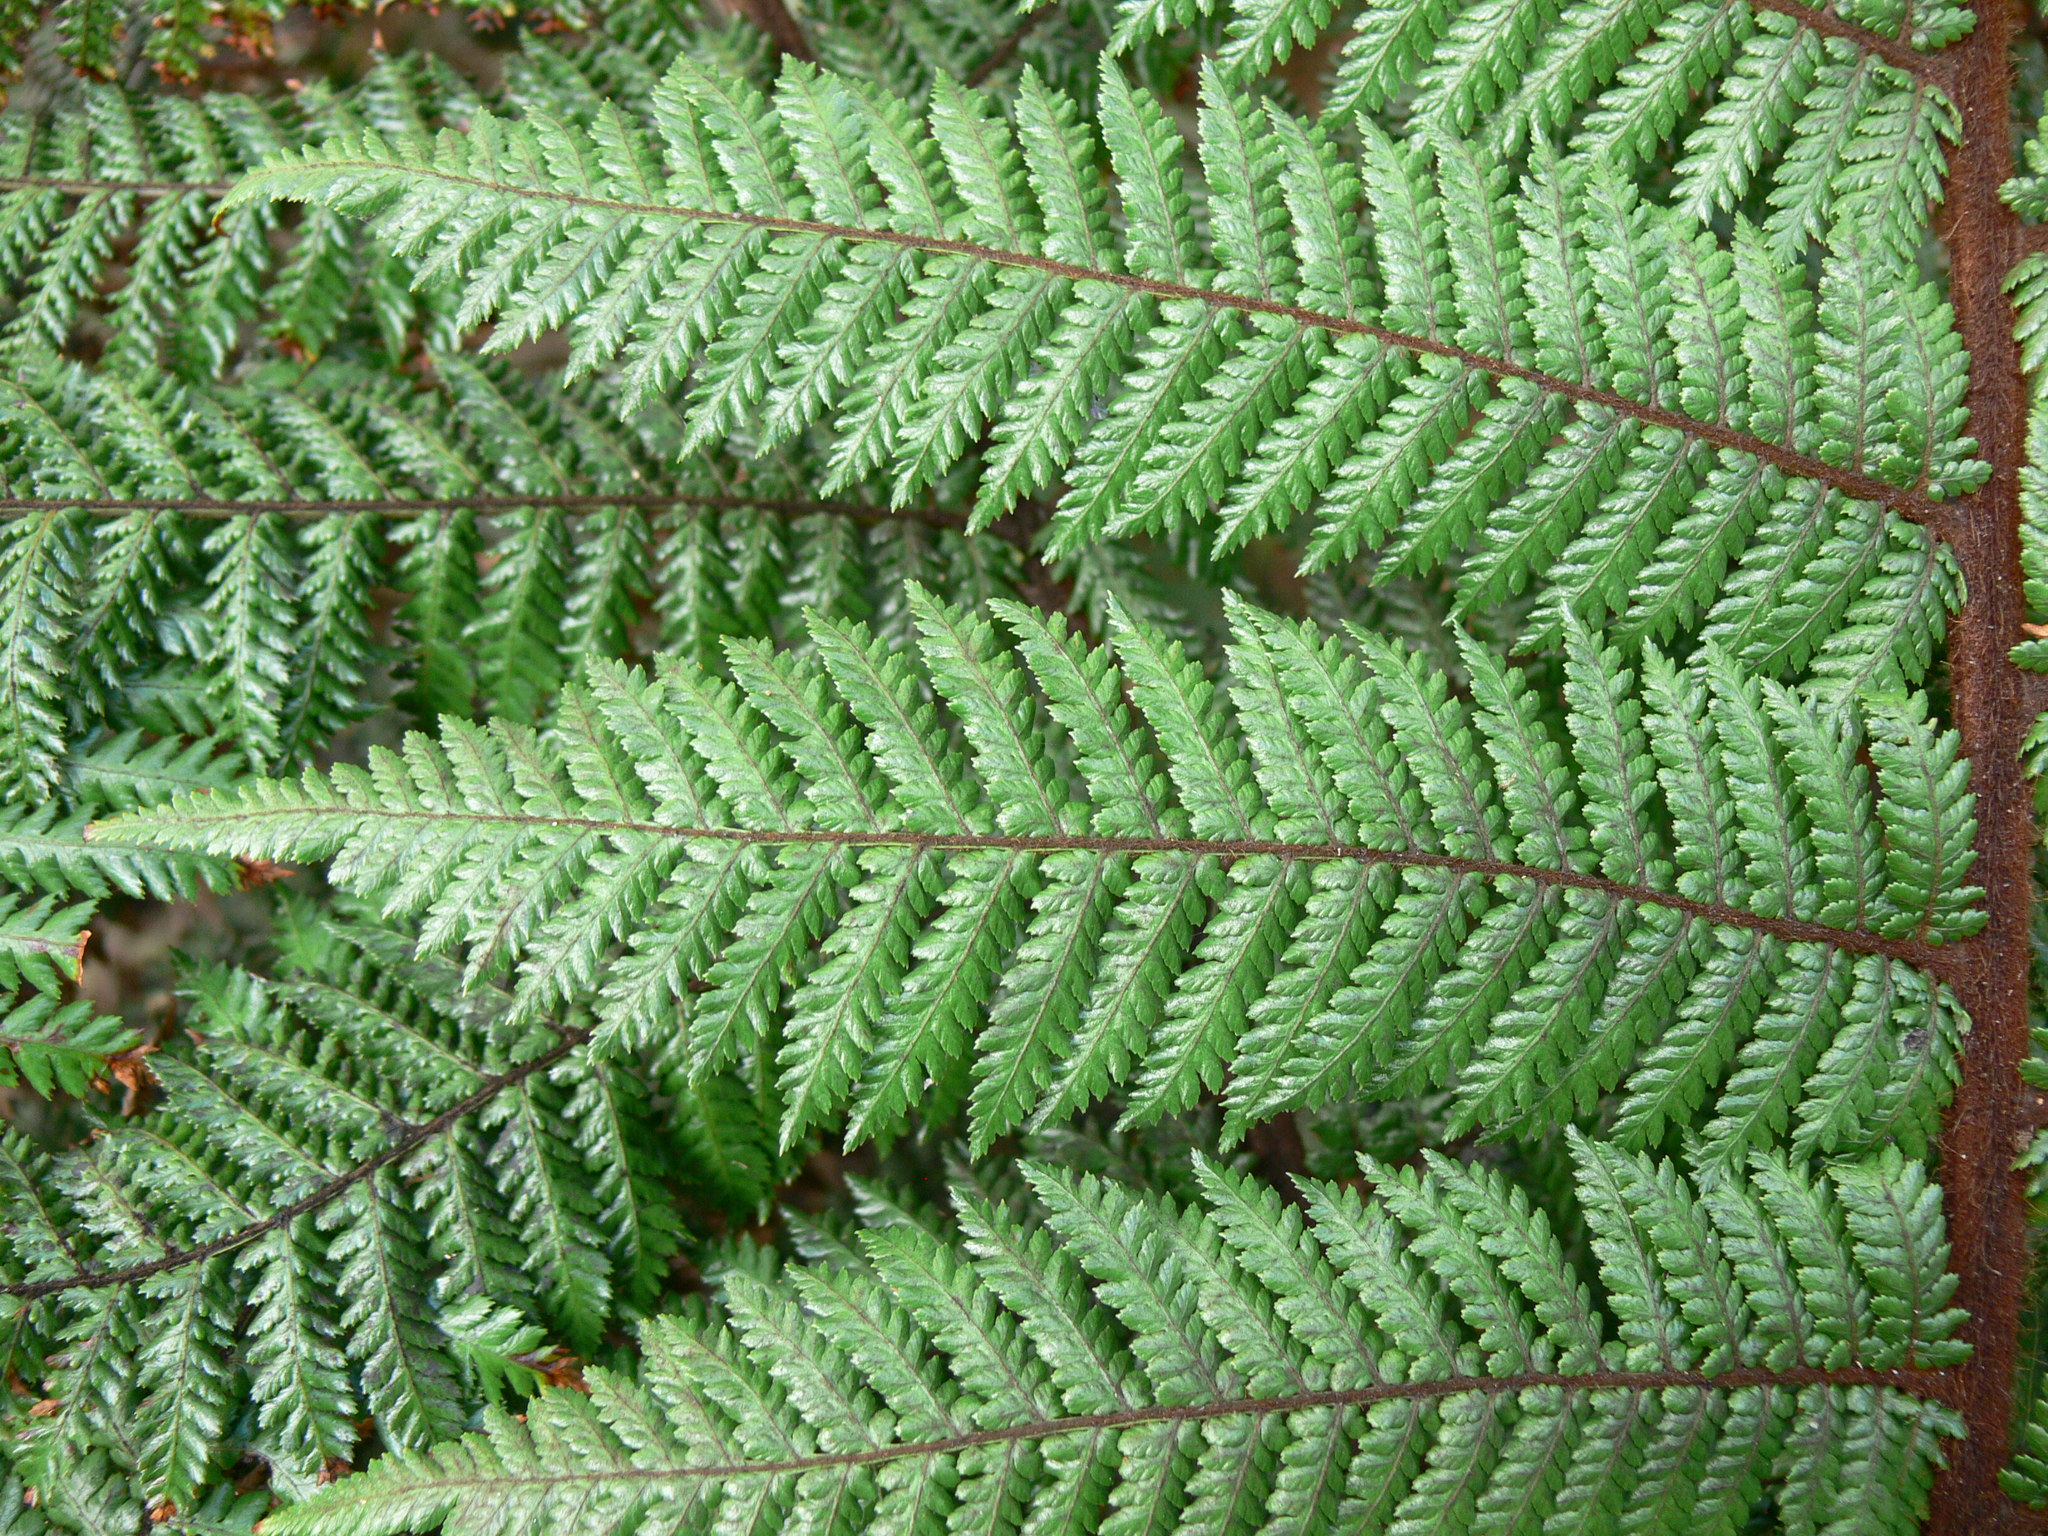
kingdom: Plantae
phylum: Tracheophyta
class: Polypodiopsida
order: Cyatheales
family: Dicksoniaceae
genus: Dicksonia
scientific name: Dicksonia squarrosa
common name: Hard treefern
